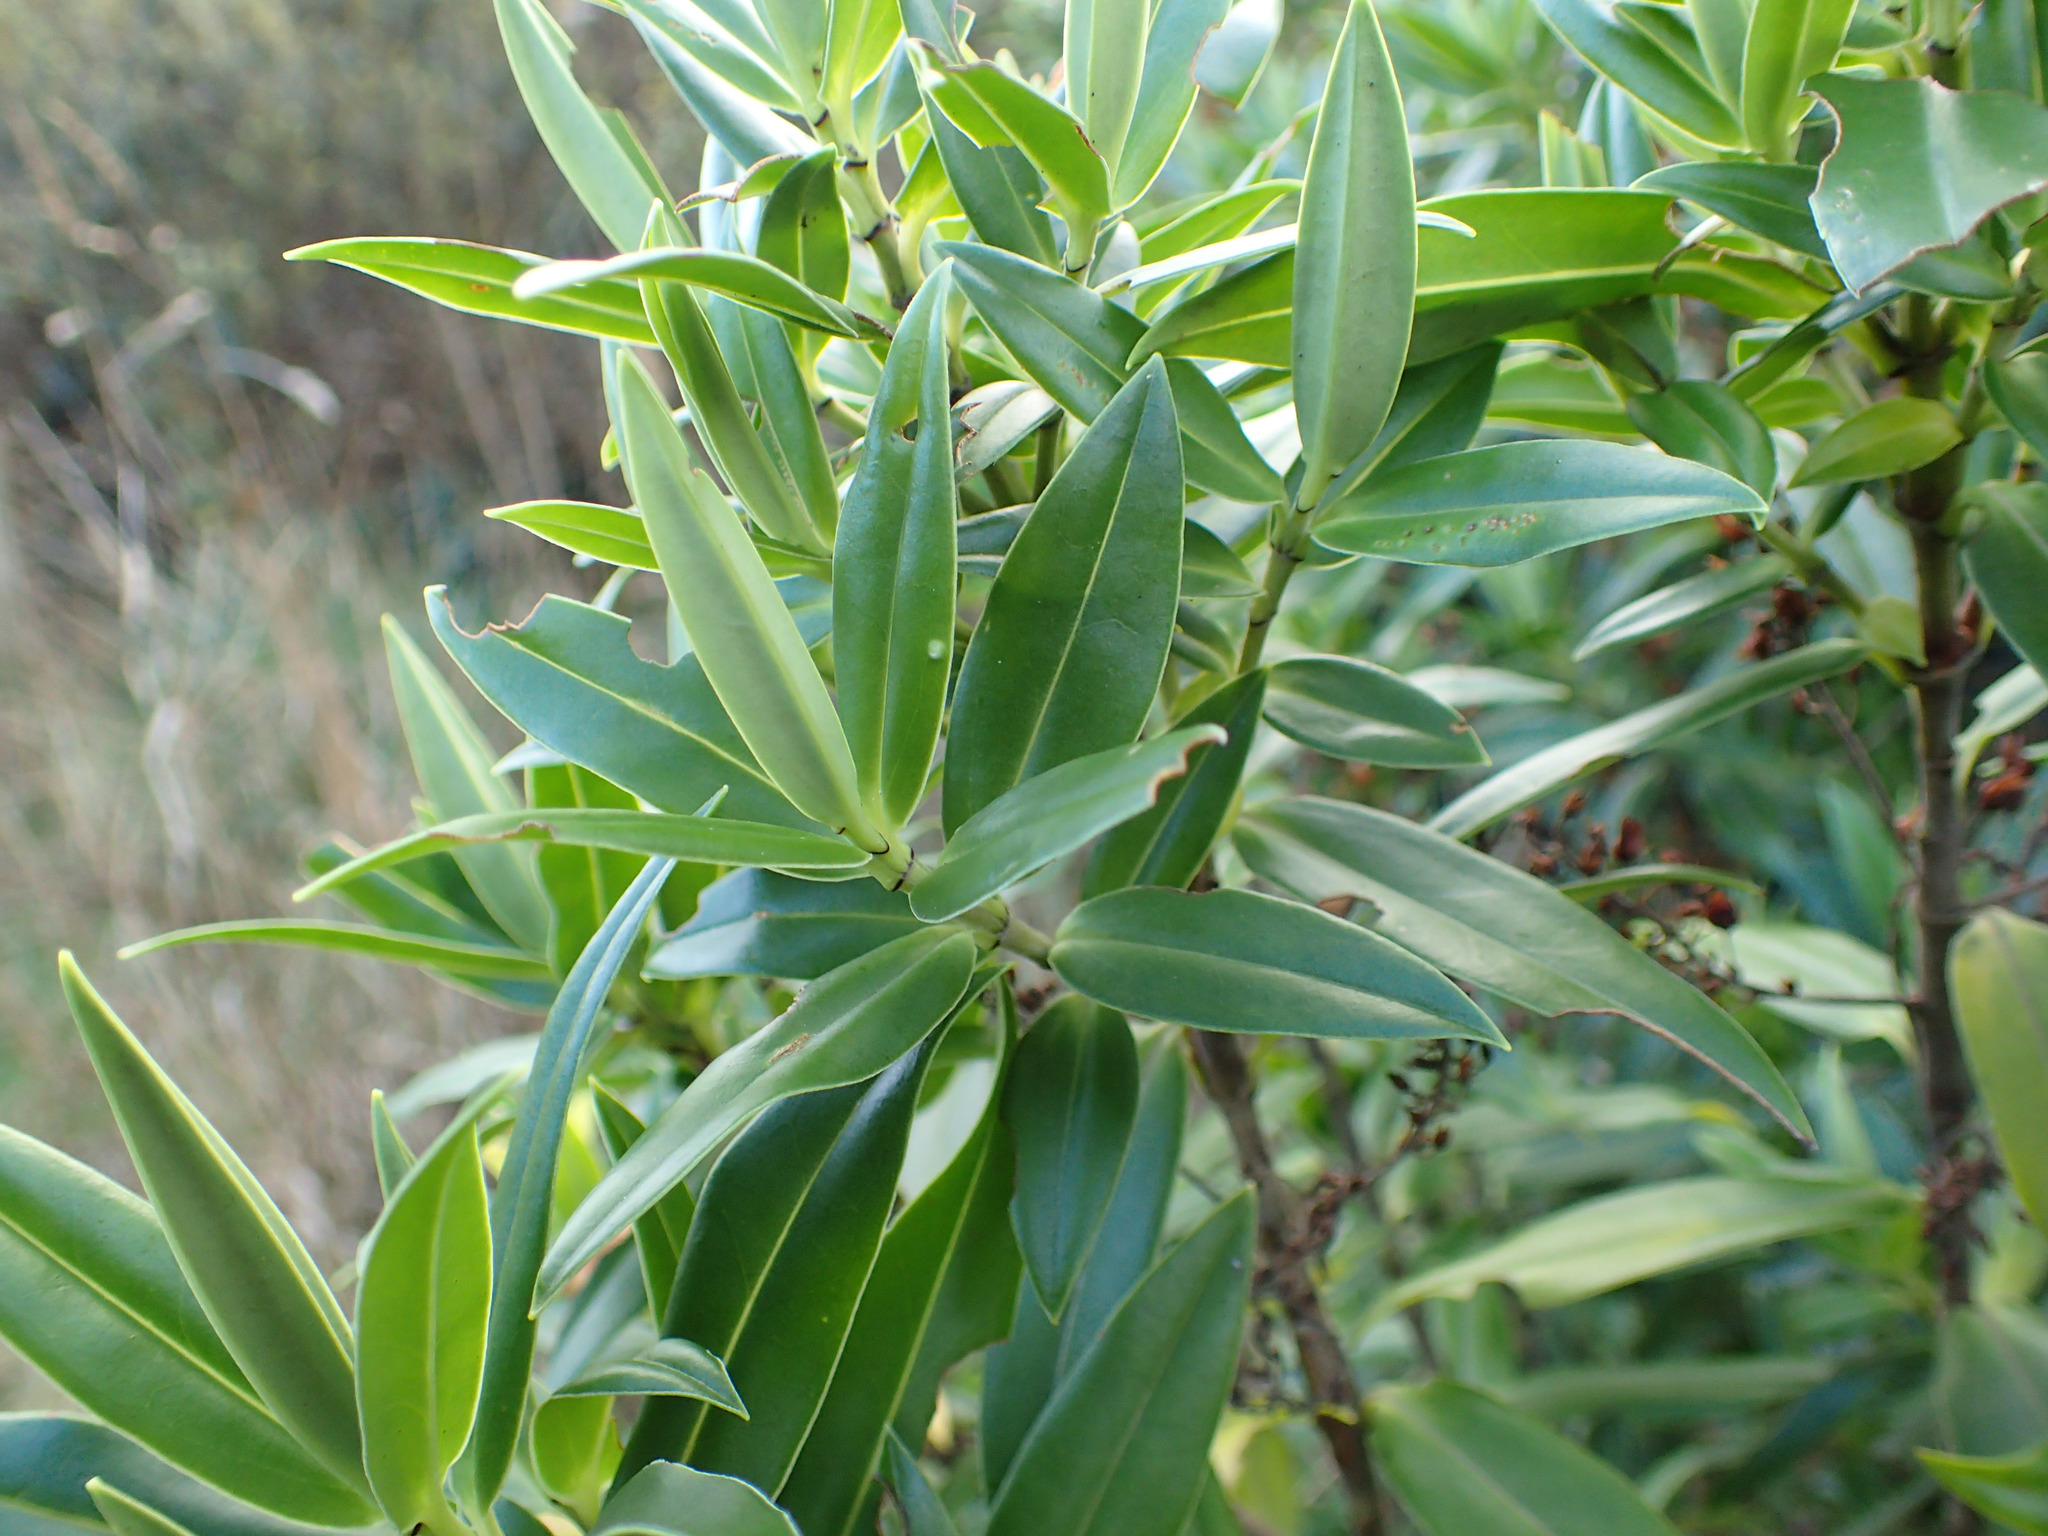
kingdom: Plantae
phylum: Tracheophyta
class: Magnoliopsida
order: Lamiales
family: Plantaginaceae
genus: Veronica
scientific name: Veronica salicifolia
